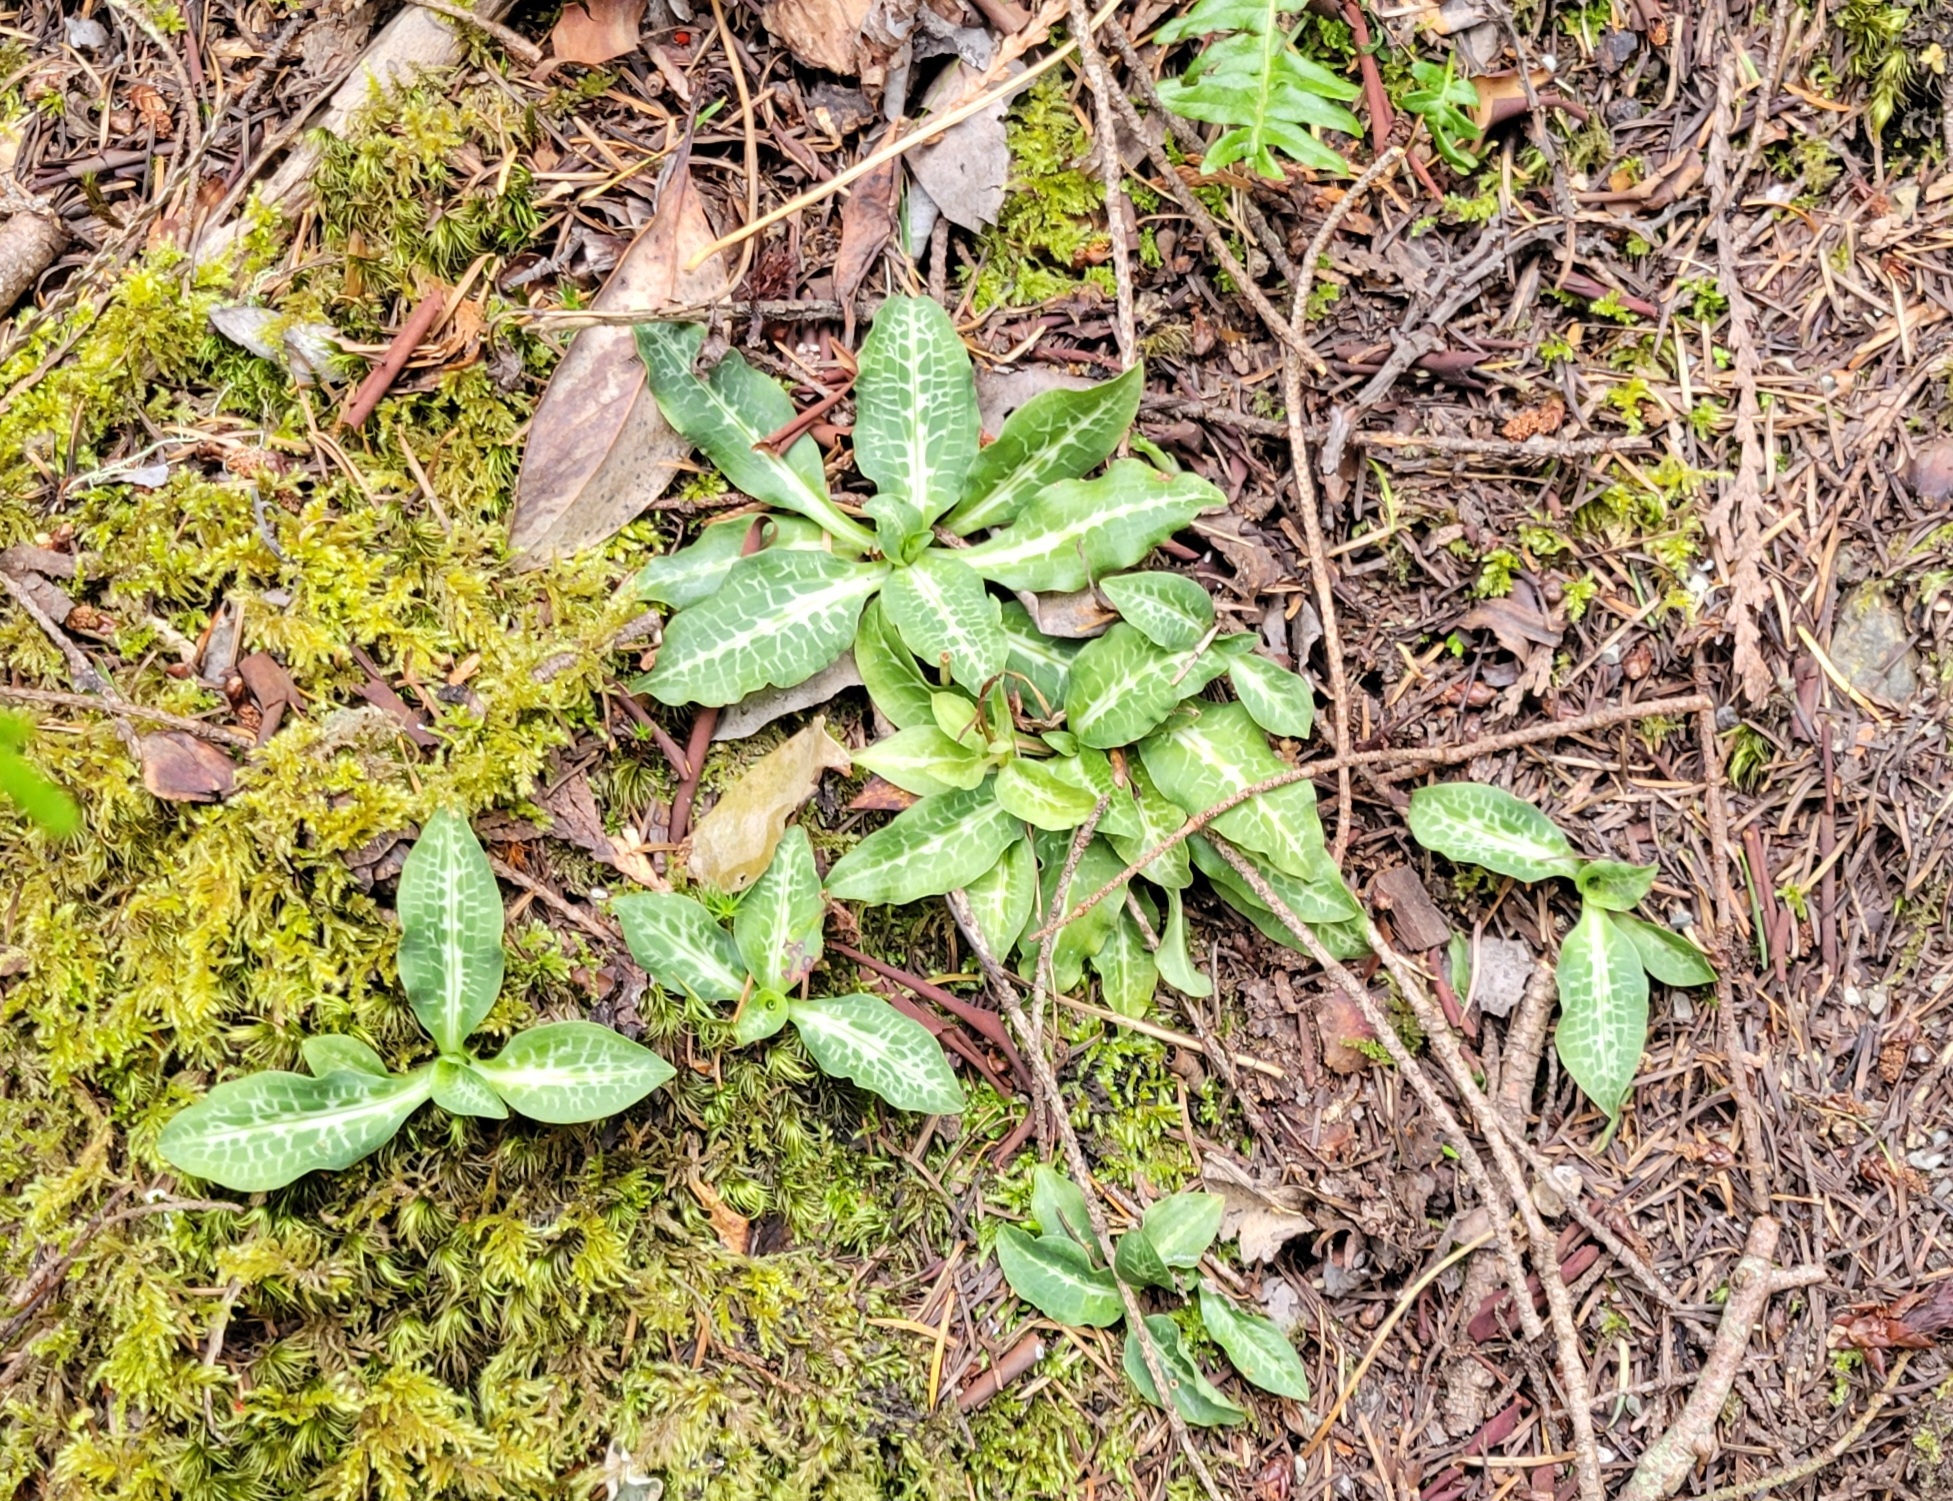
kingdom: Plantae
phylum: Tracheophyta
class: Liliopsida
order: Asparagales
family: Orchidaceae
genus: Goodyera
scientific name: Goodyera oblongifolia
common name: Giant rattlesnake-plantain
